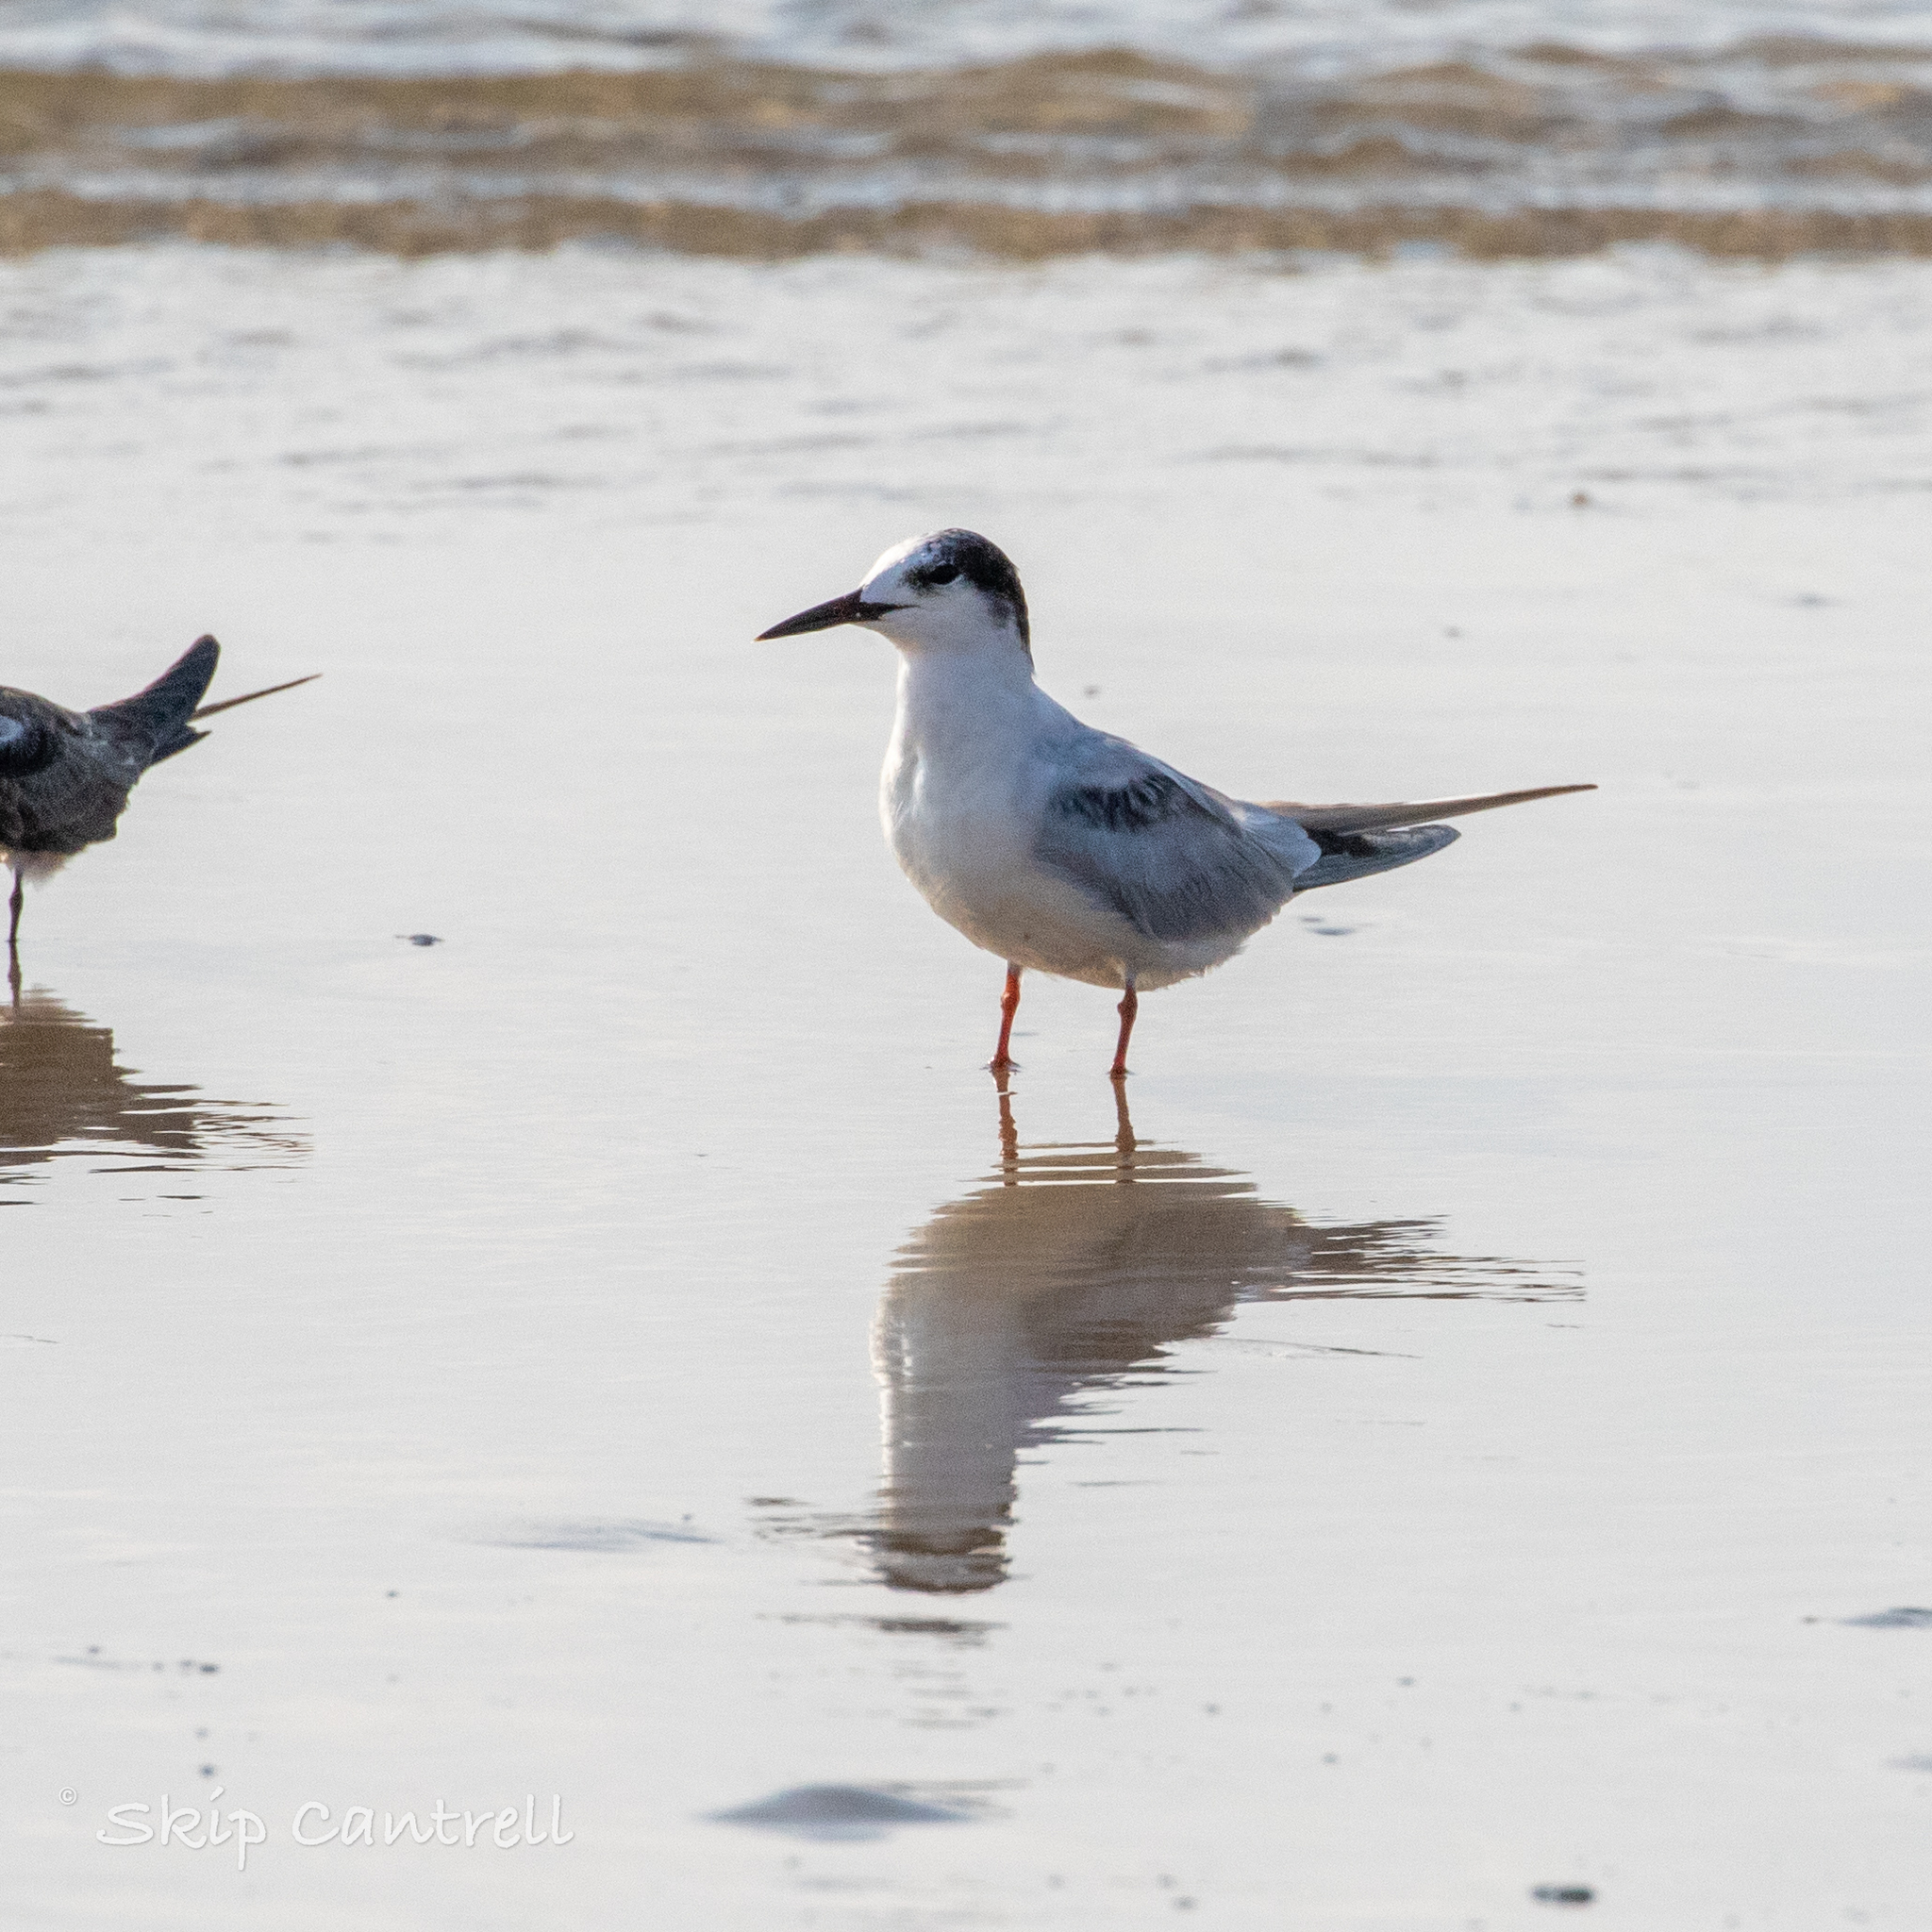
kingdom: Animalia
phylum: Chordata
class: Aves
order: Charadriiformes
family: Laridae
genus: Sterna
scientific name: Sterna hirundo
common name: Common tern
